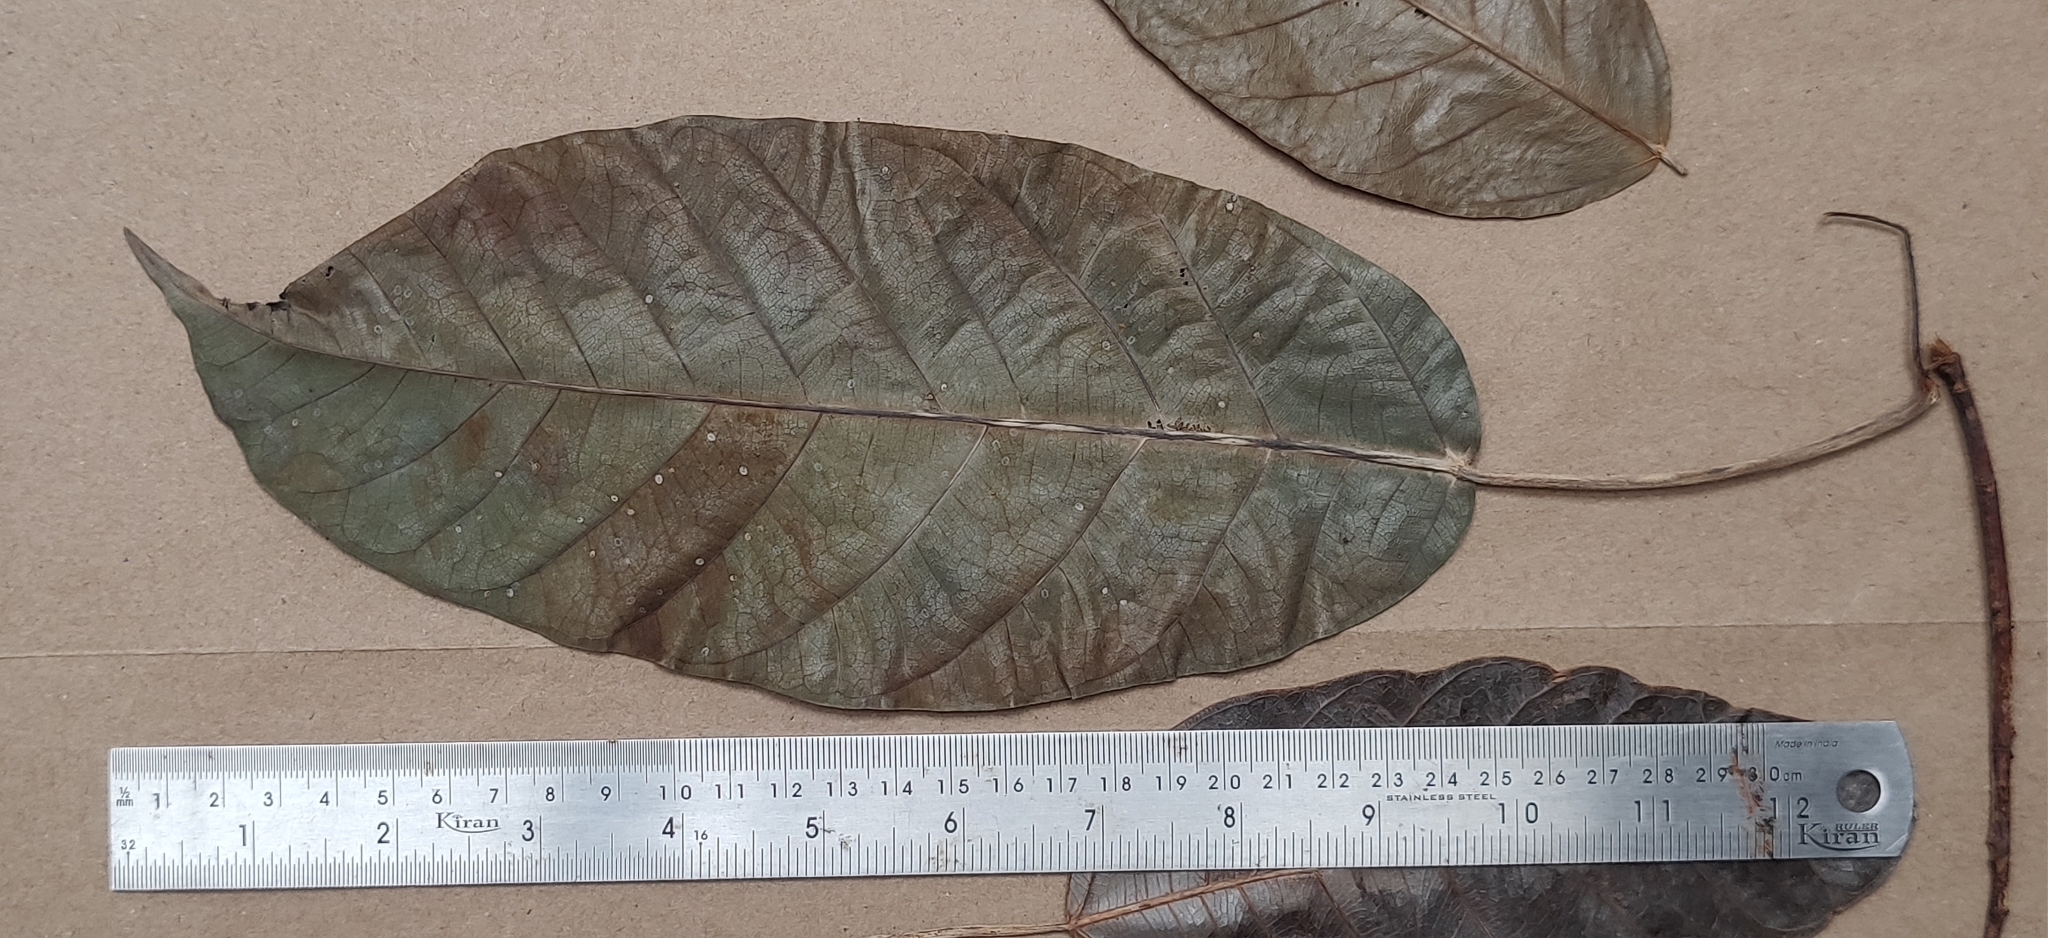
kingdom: Plantae
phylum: Tracheophyta
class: Magnoliopsida
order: Rosales
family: Moraceae
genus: Ficus
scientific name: Ficus tsjakela
